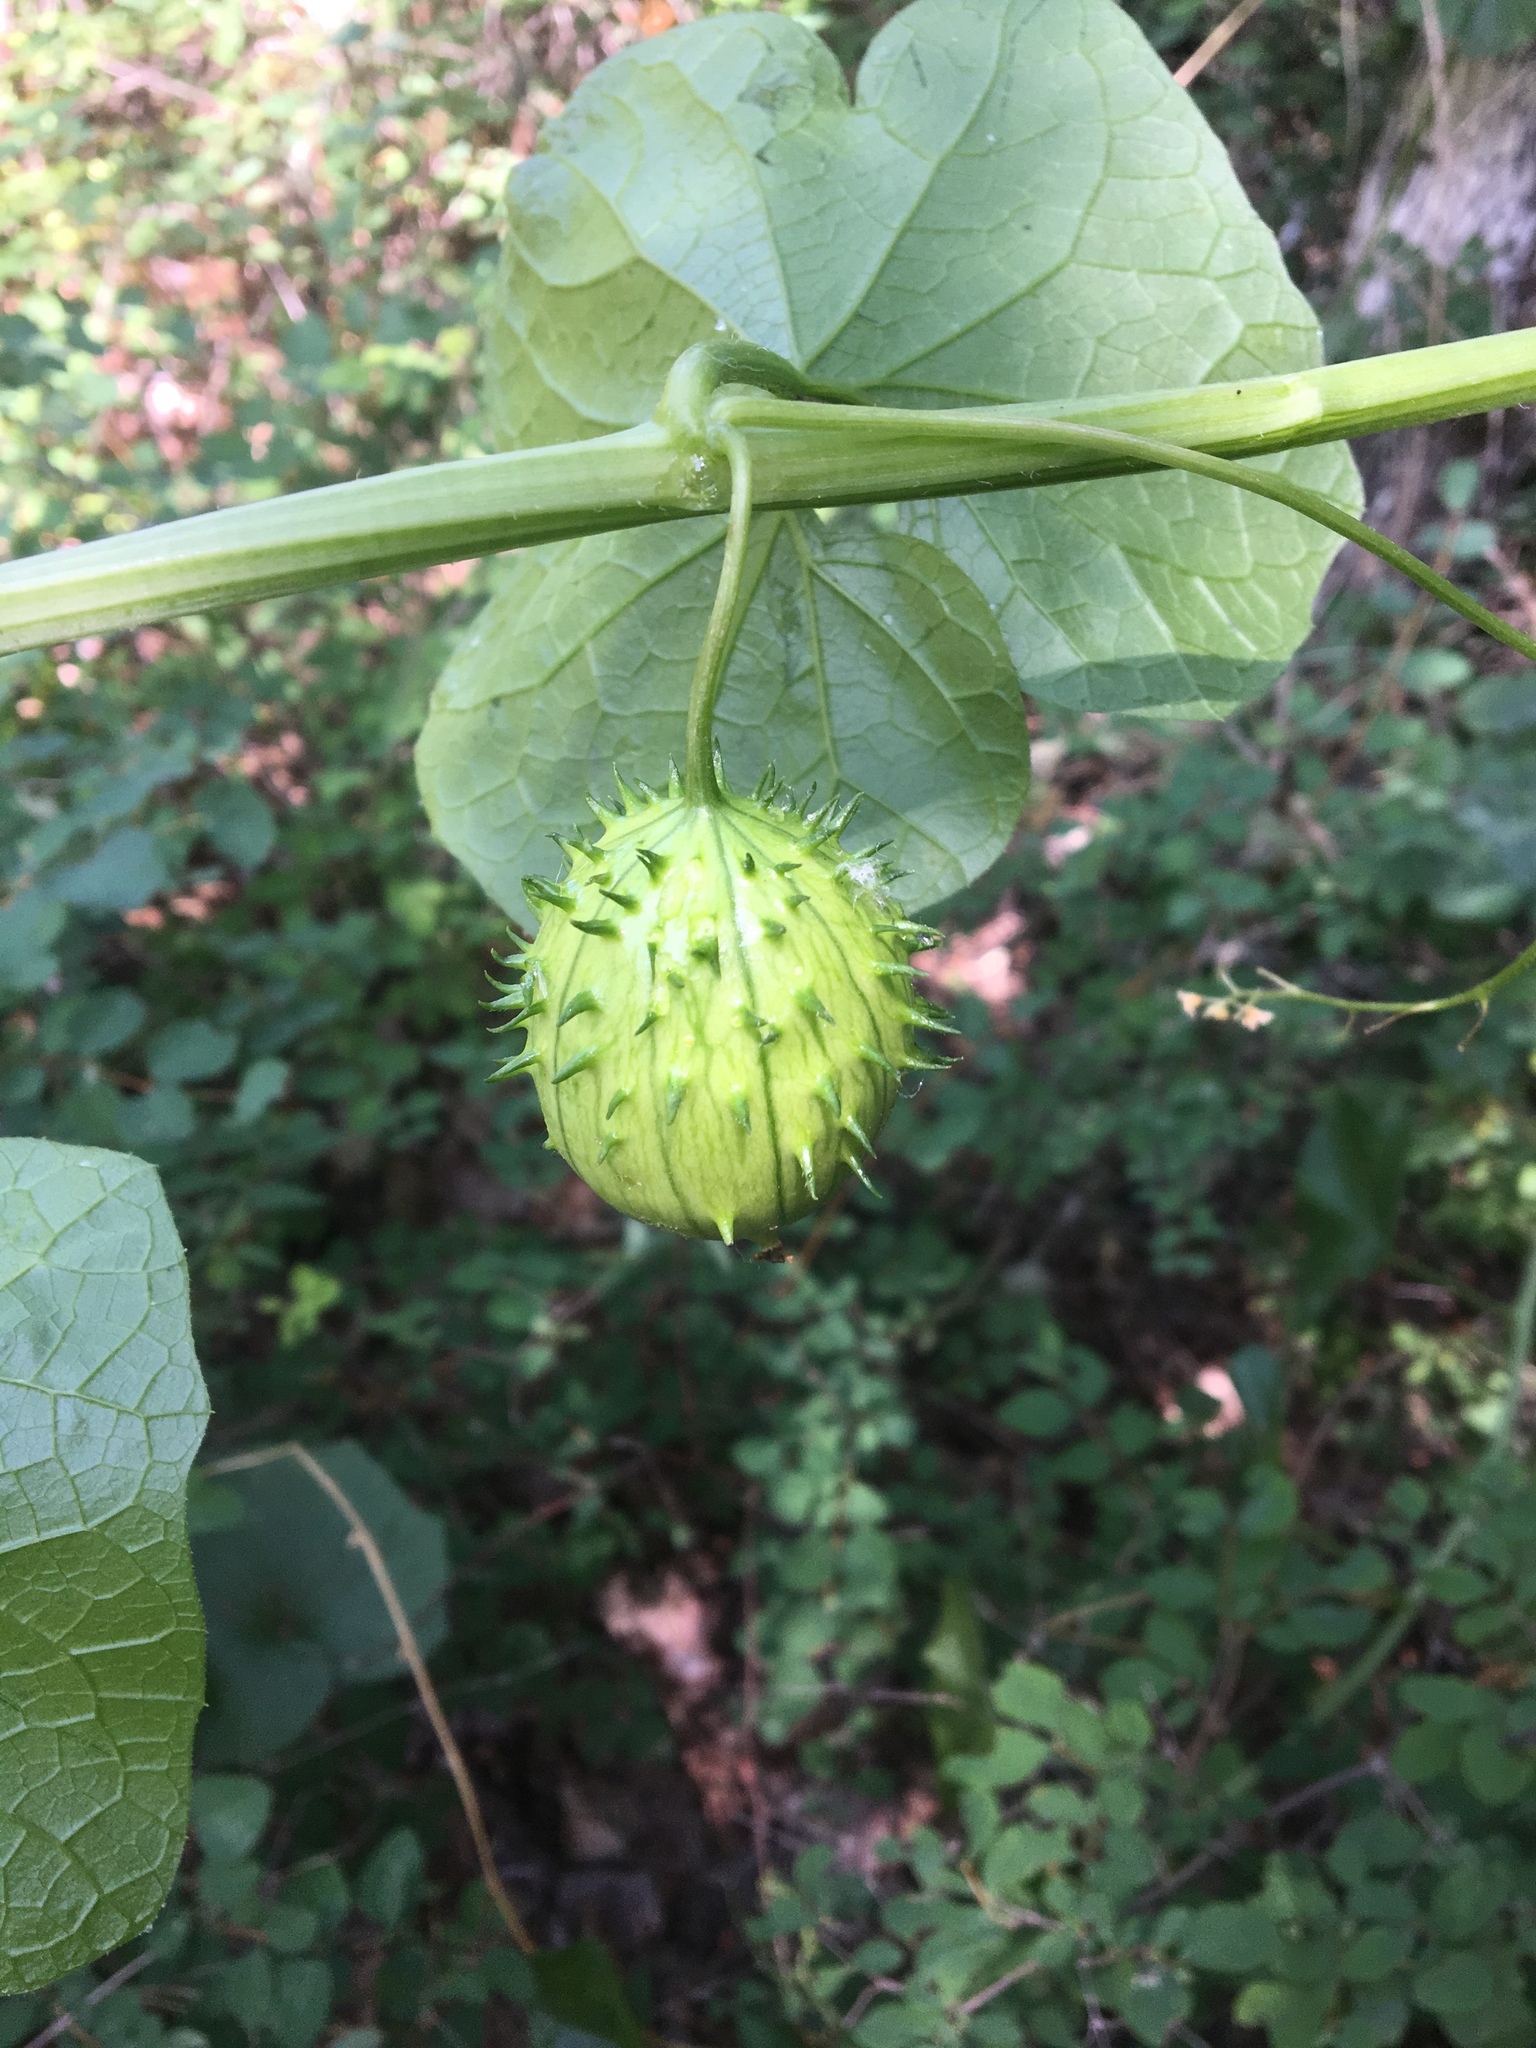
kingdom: Plantae
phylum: Tracheophyta
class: Magnoliopsida
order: Cucurbitales
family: Cucurbitaceae
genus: Marah
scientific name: Marah oregana
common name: Coastal manroot
